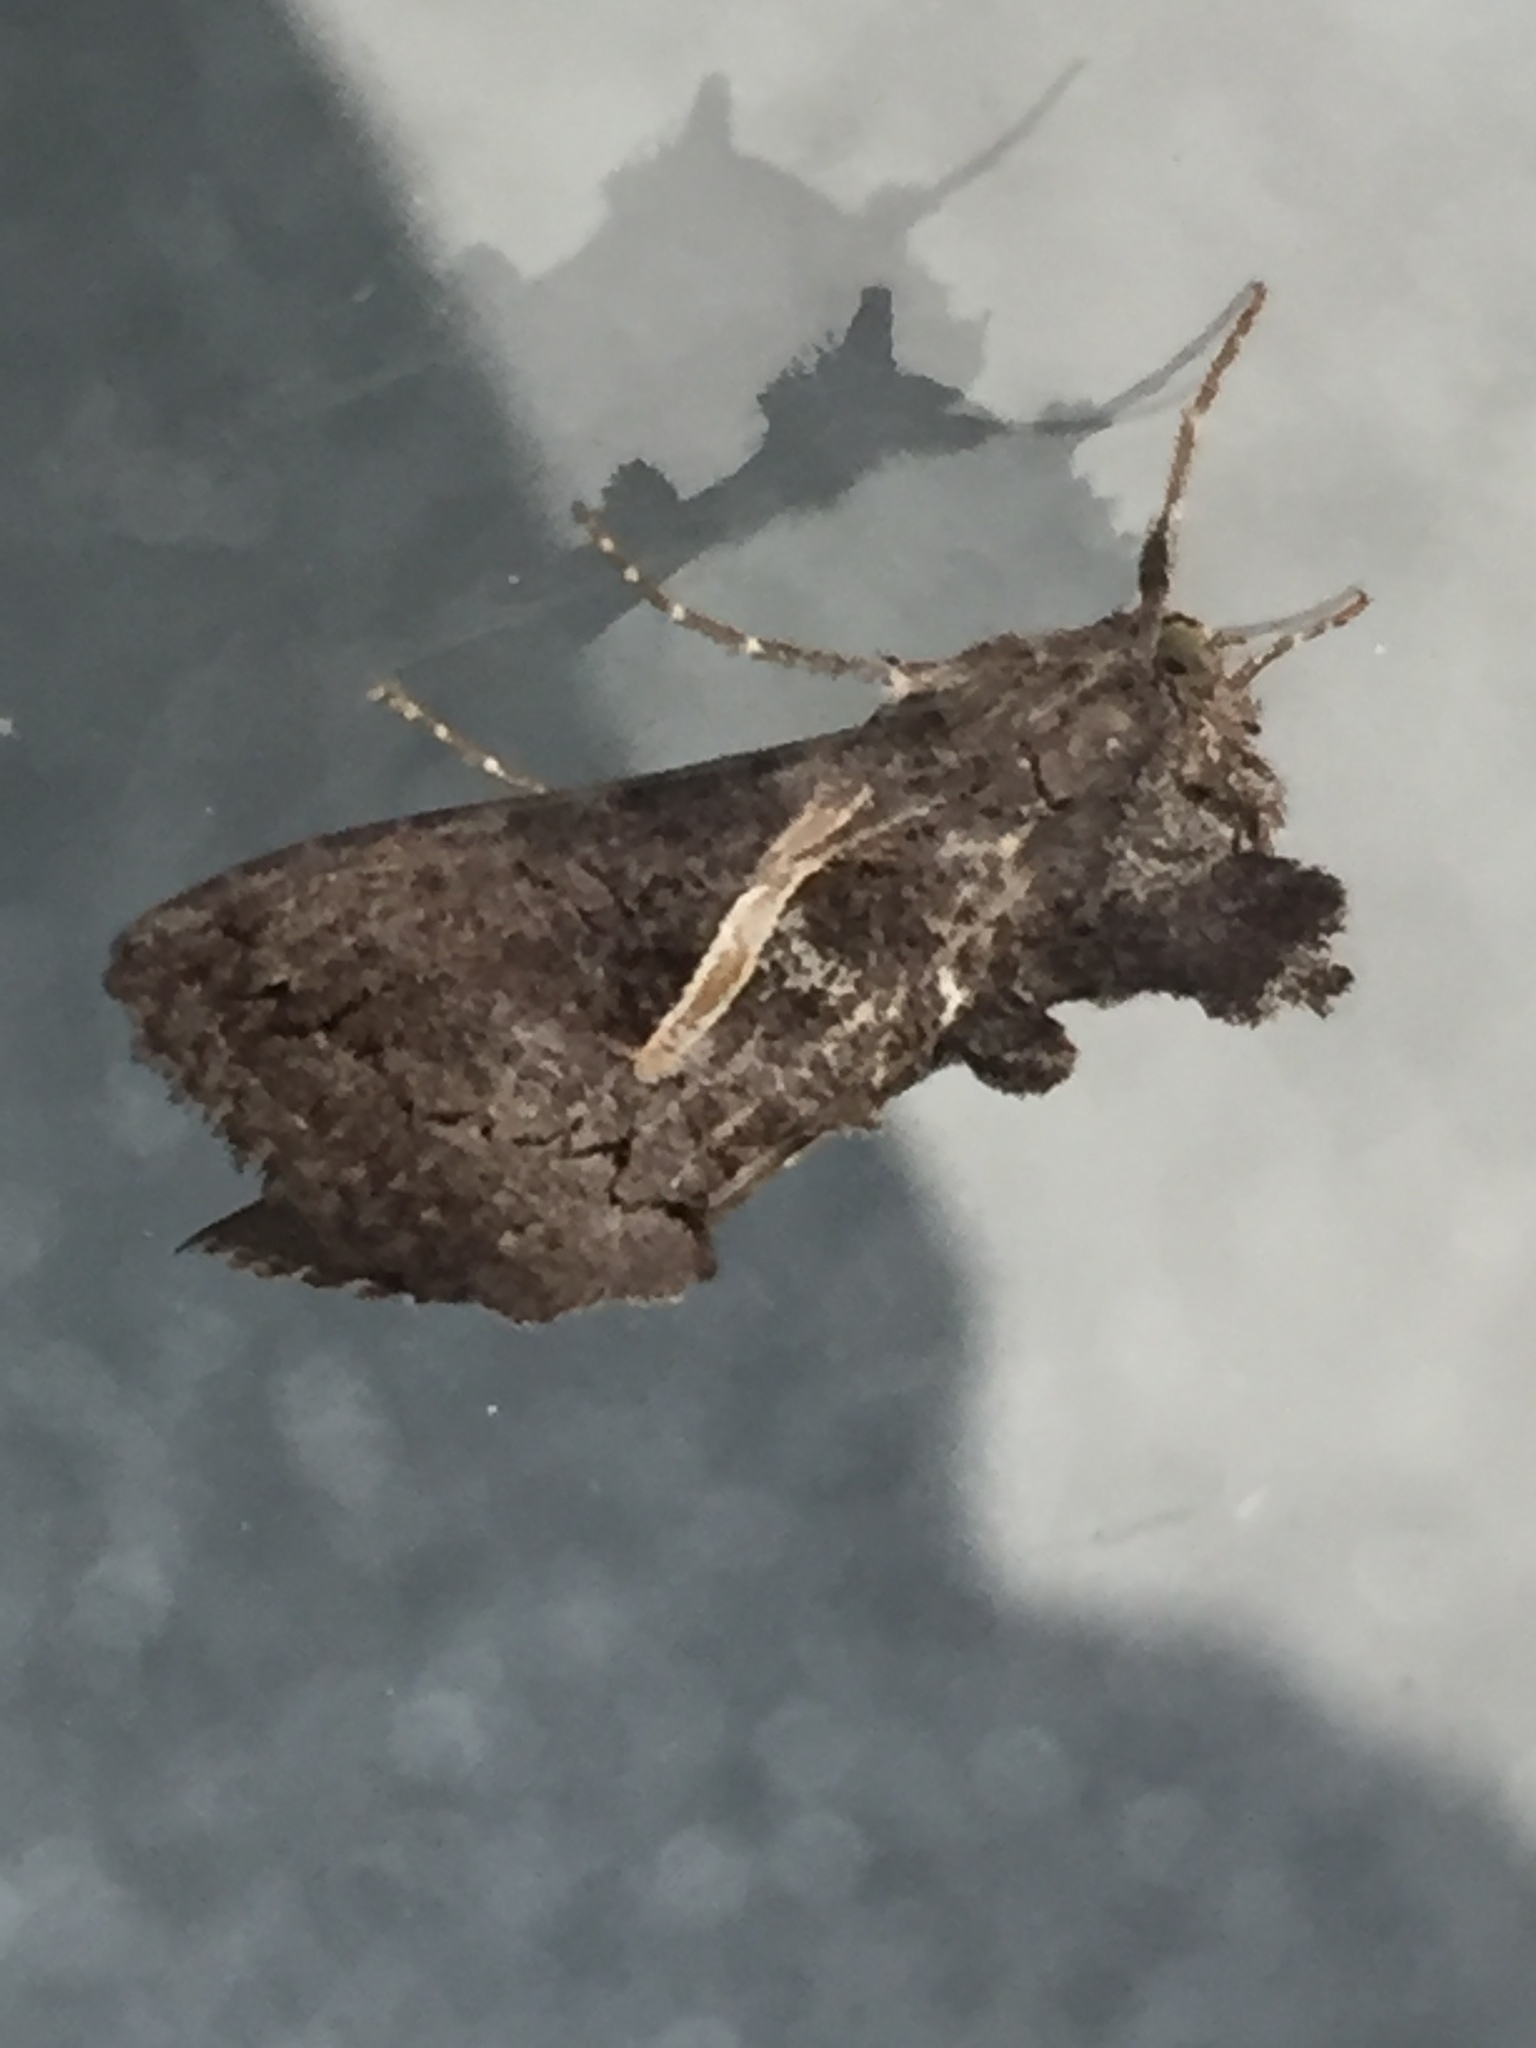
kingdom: Animalia
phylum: Arthropoda
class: Insecta
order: Lepidoptera
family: Noctuidae
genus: Ctenoplusia
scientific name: Ctenoplusia albostriata
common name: Moth
